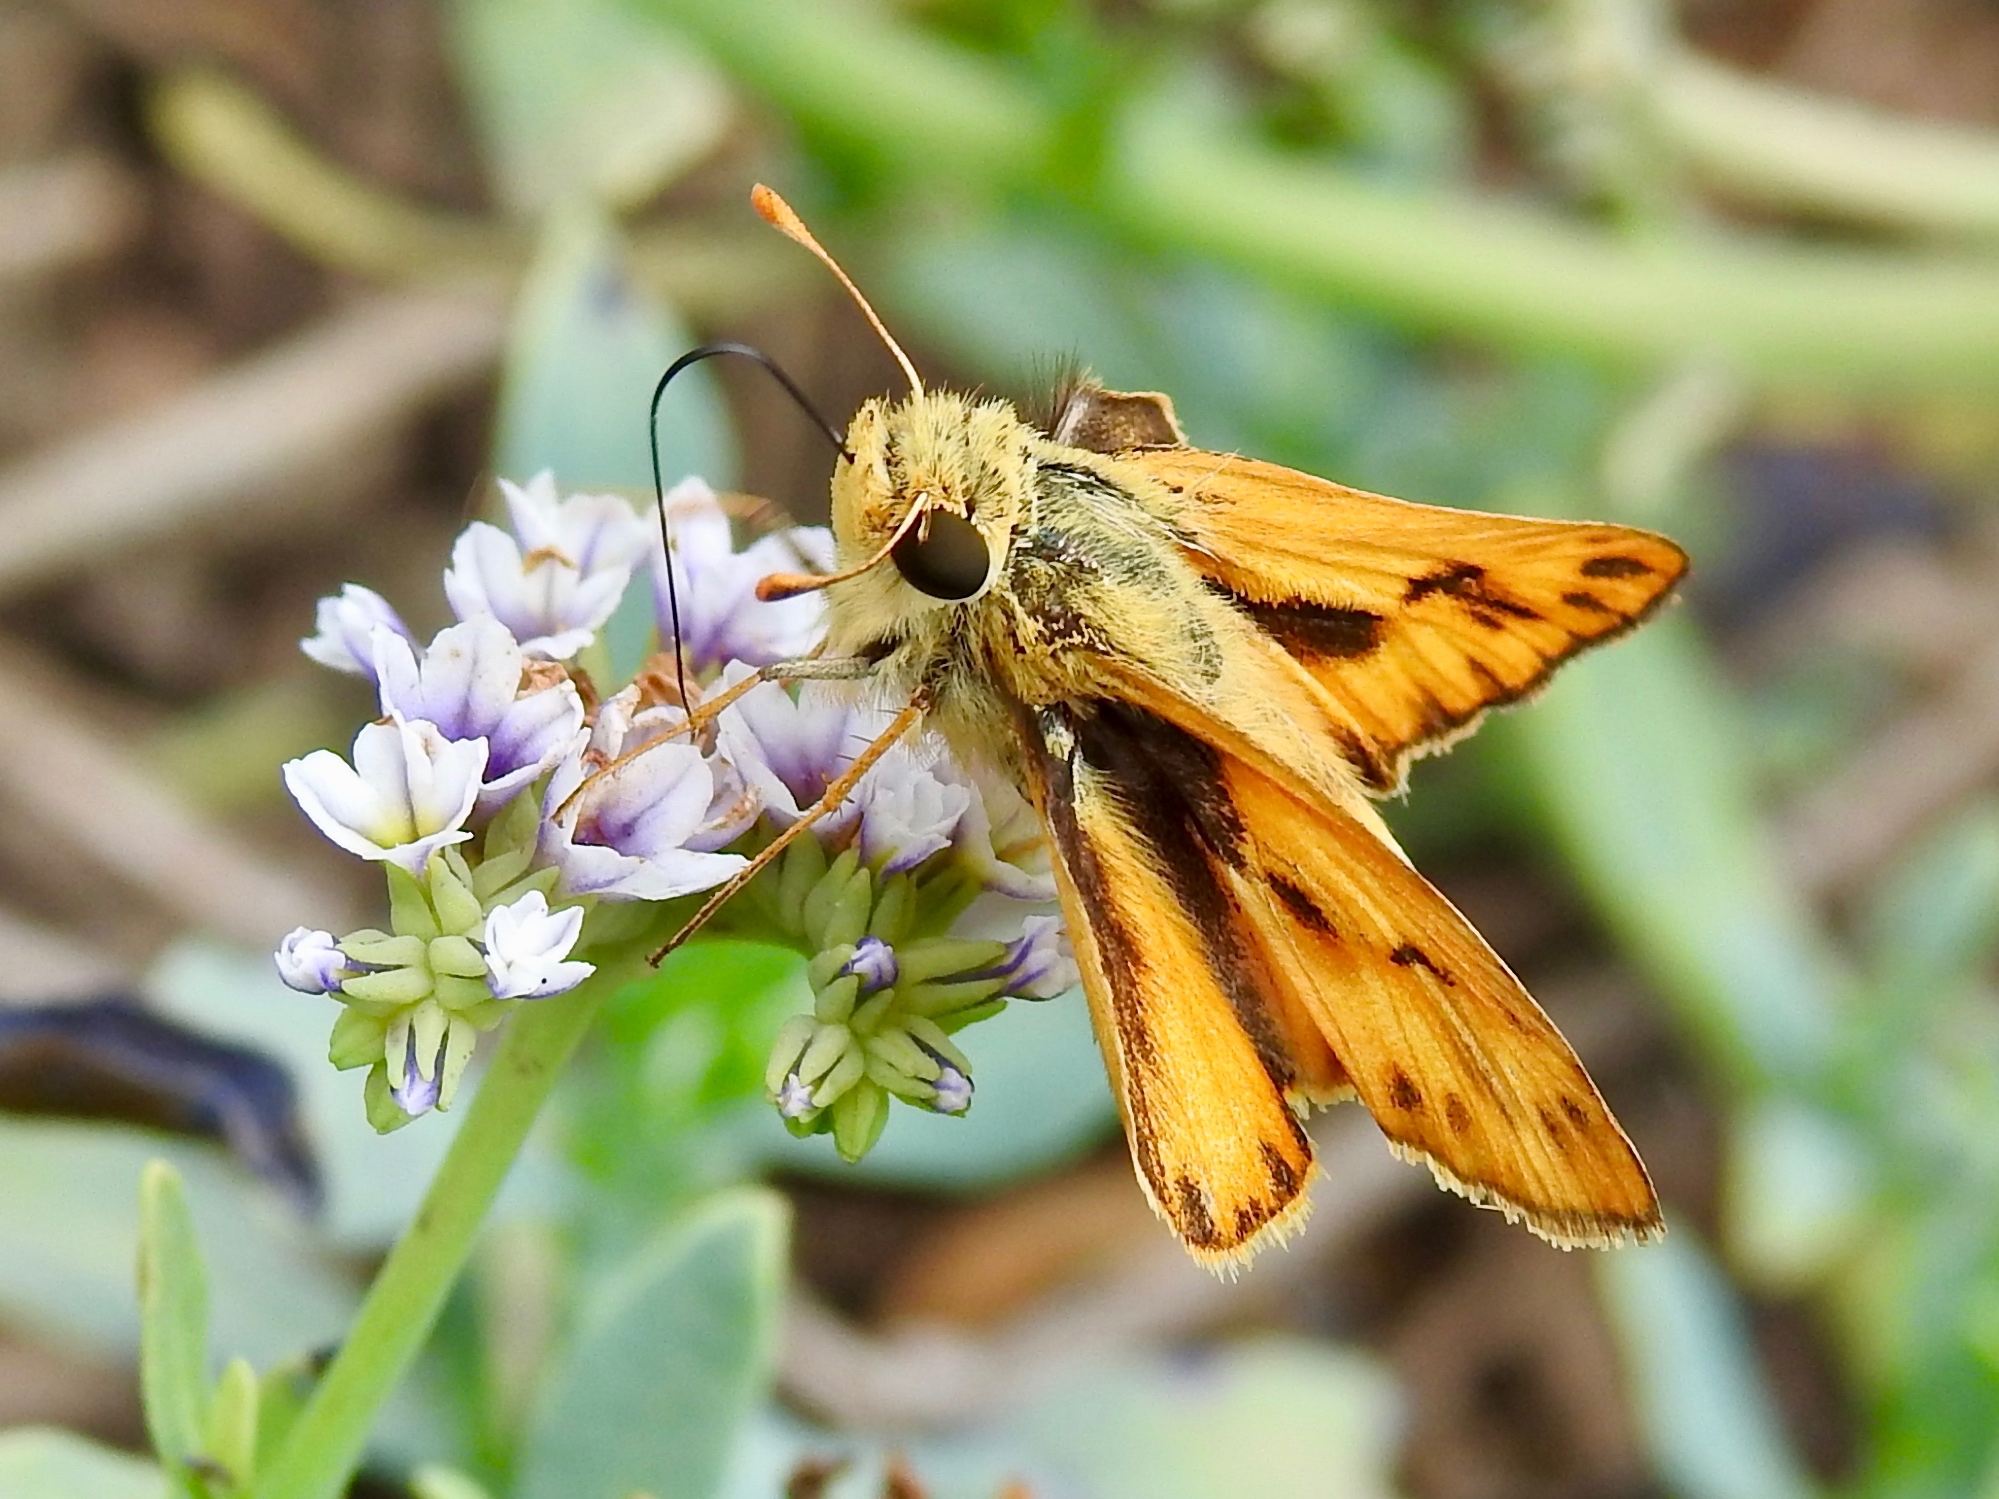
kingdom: Animalia
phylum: Arthropoda
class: Insecta
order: Lepidoptera
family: Hesperiidae
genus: Hylephila
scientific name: Hylephila phyleus
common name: Fiery skipper
